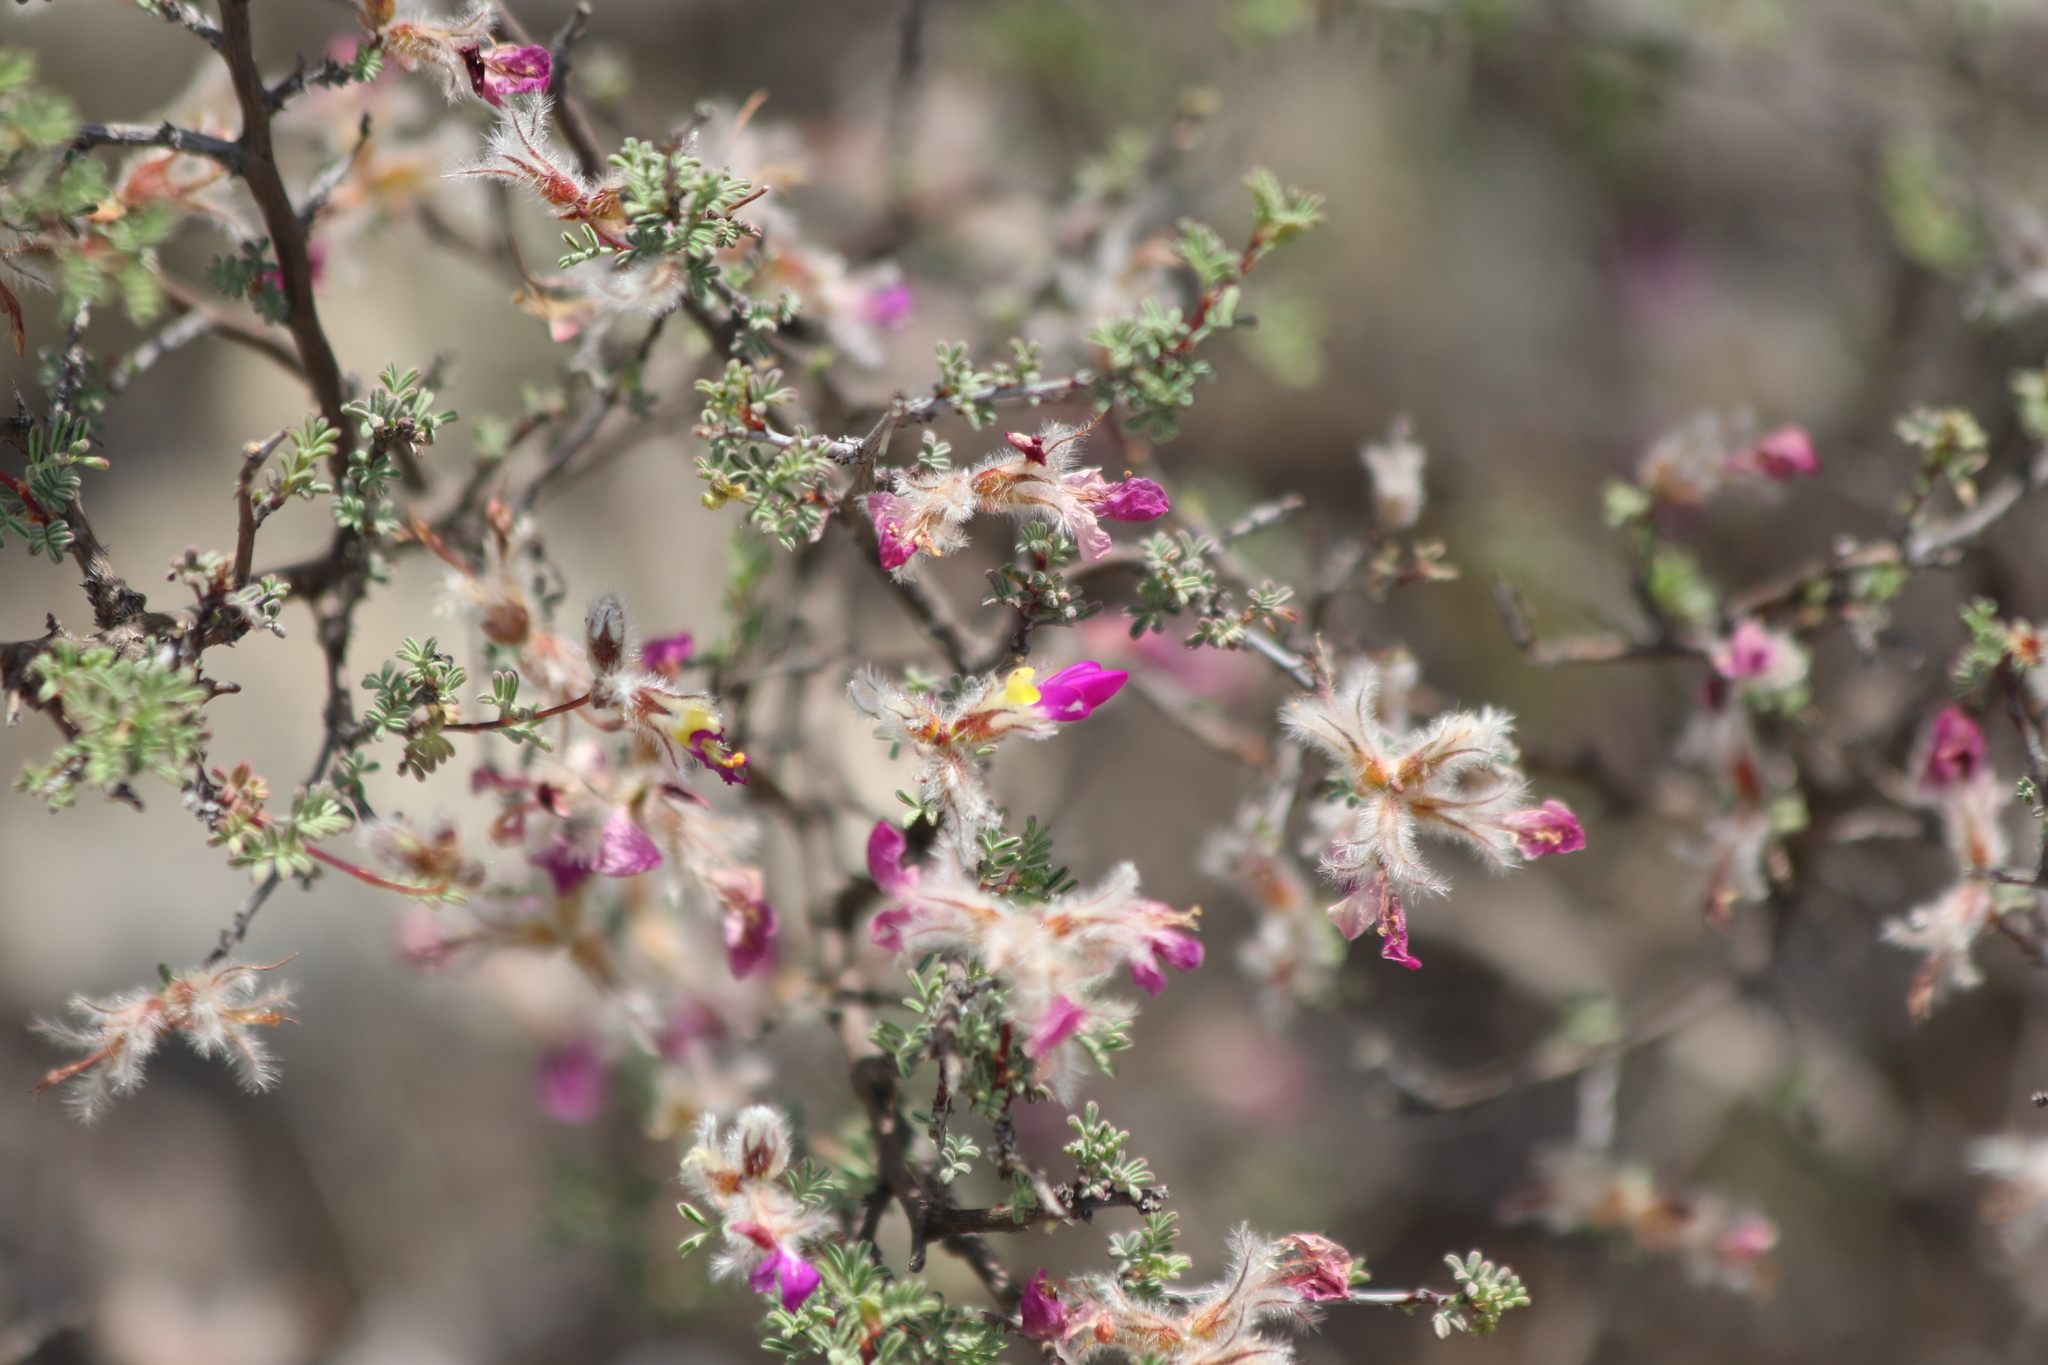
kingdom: Plantae
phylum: Tracheophyta
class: Magnoliopsida
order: Fabales
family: Fabaceae
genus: Dalea
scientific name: Dalea formosa
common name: Feather-plume dalea
